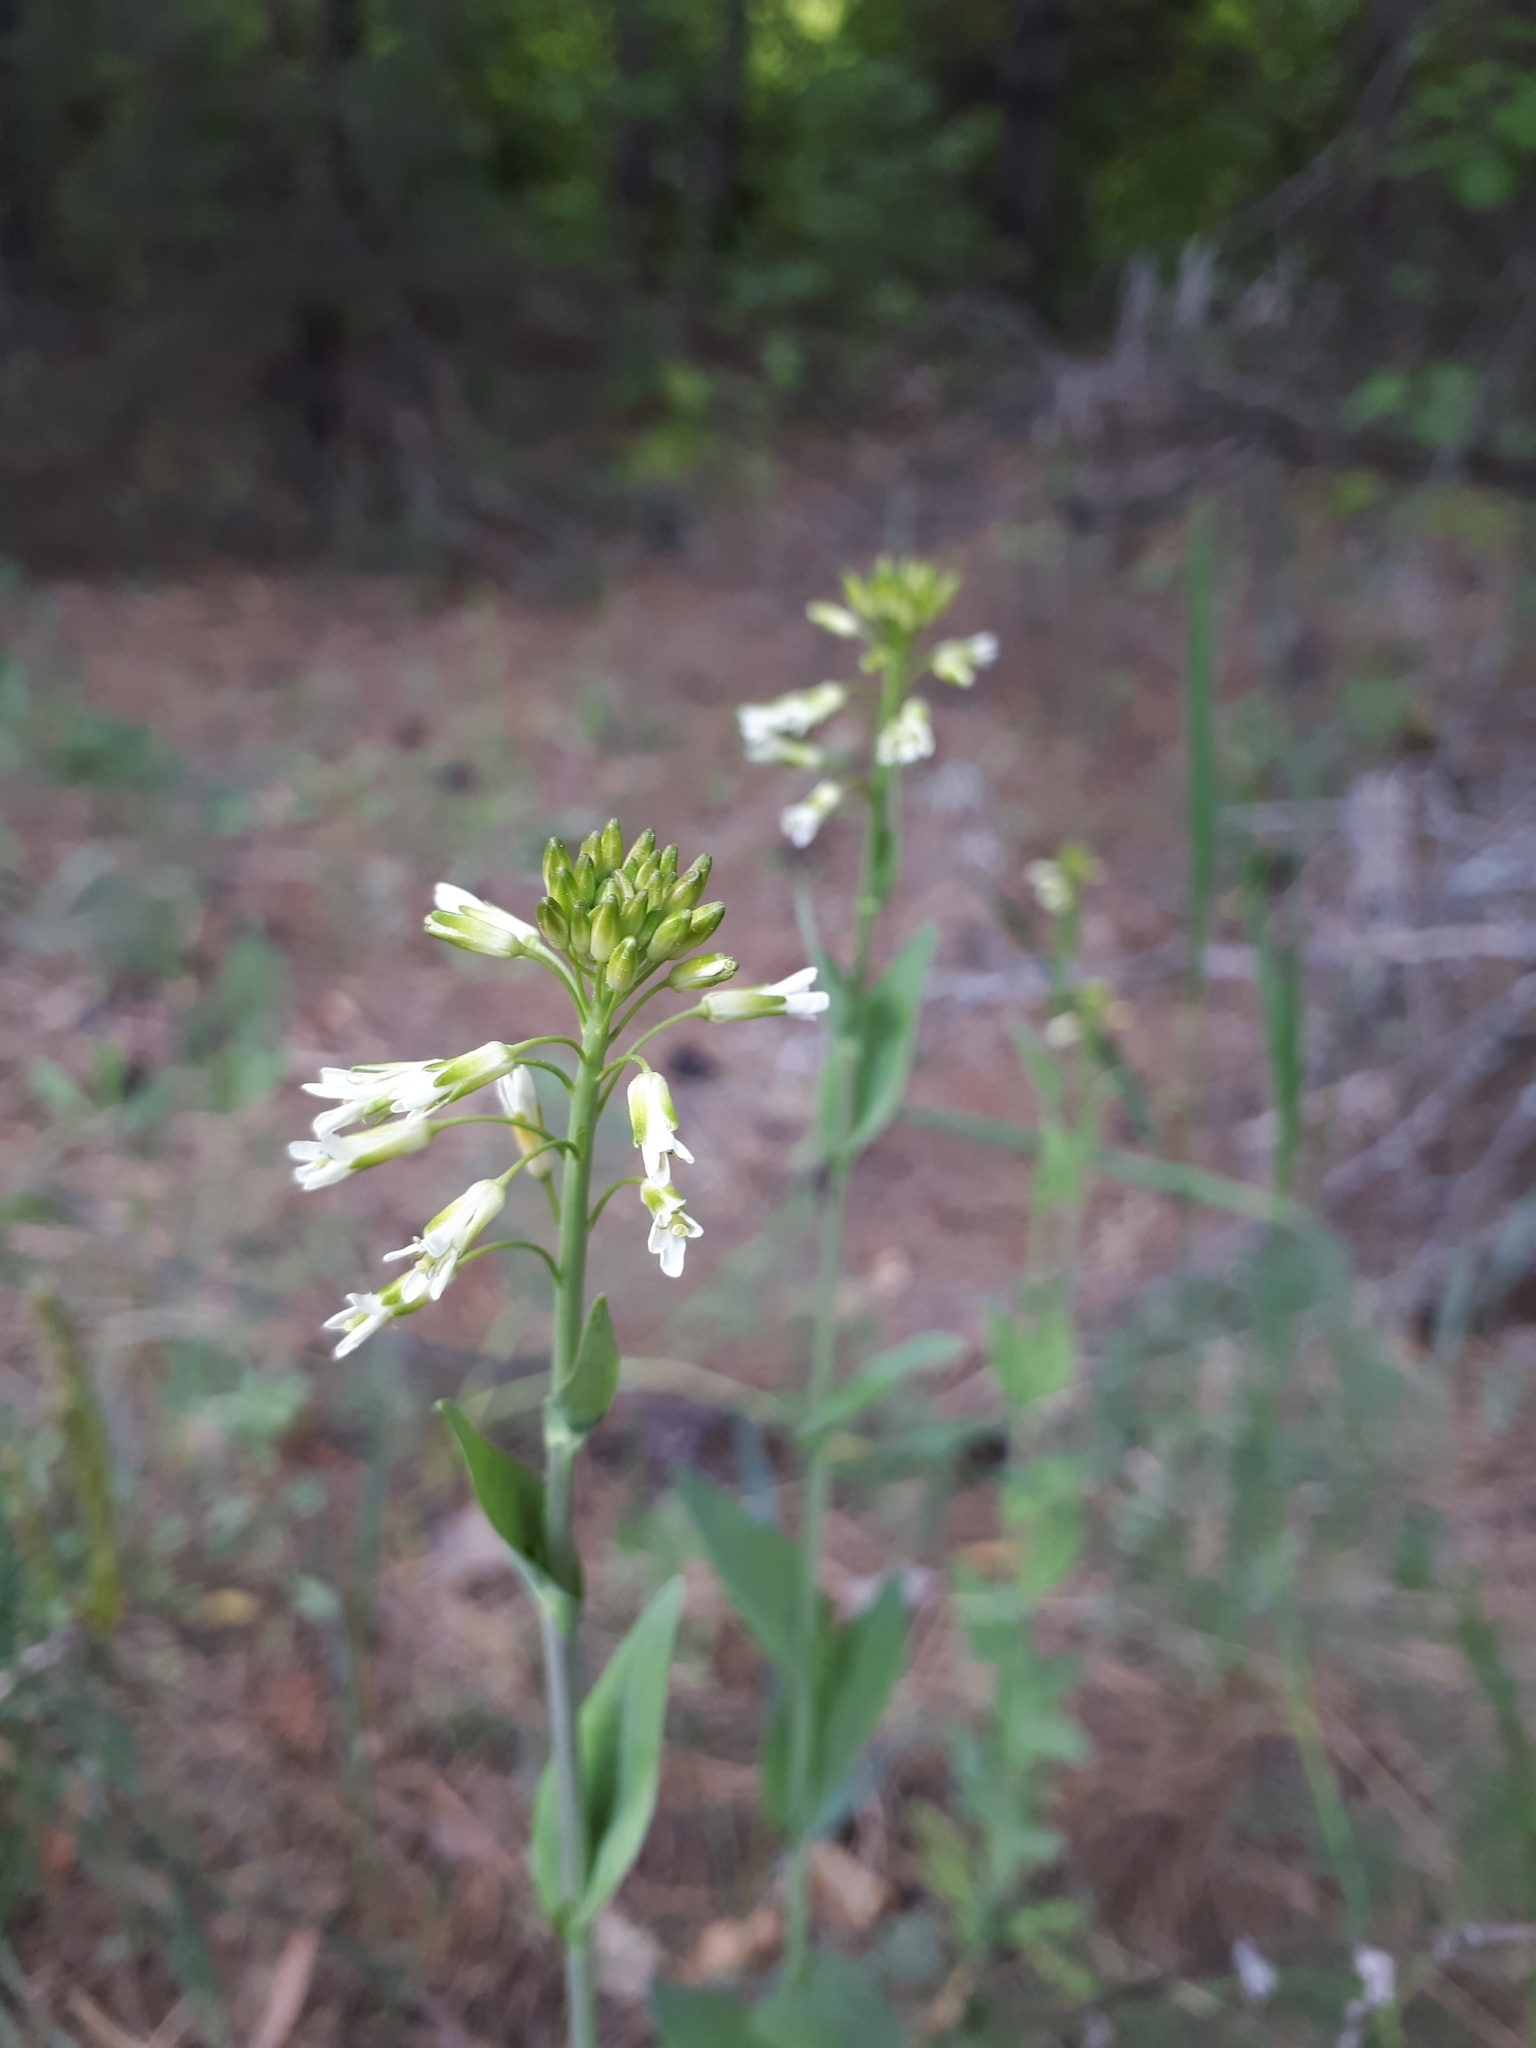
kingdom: Plantae
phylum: Tracheophyta
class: Magnoliopsida
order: Brassicales
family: Brassicaceae
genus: Turritis
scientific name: Turritis glabra
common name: Tower rockcress
